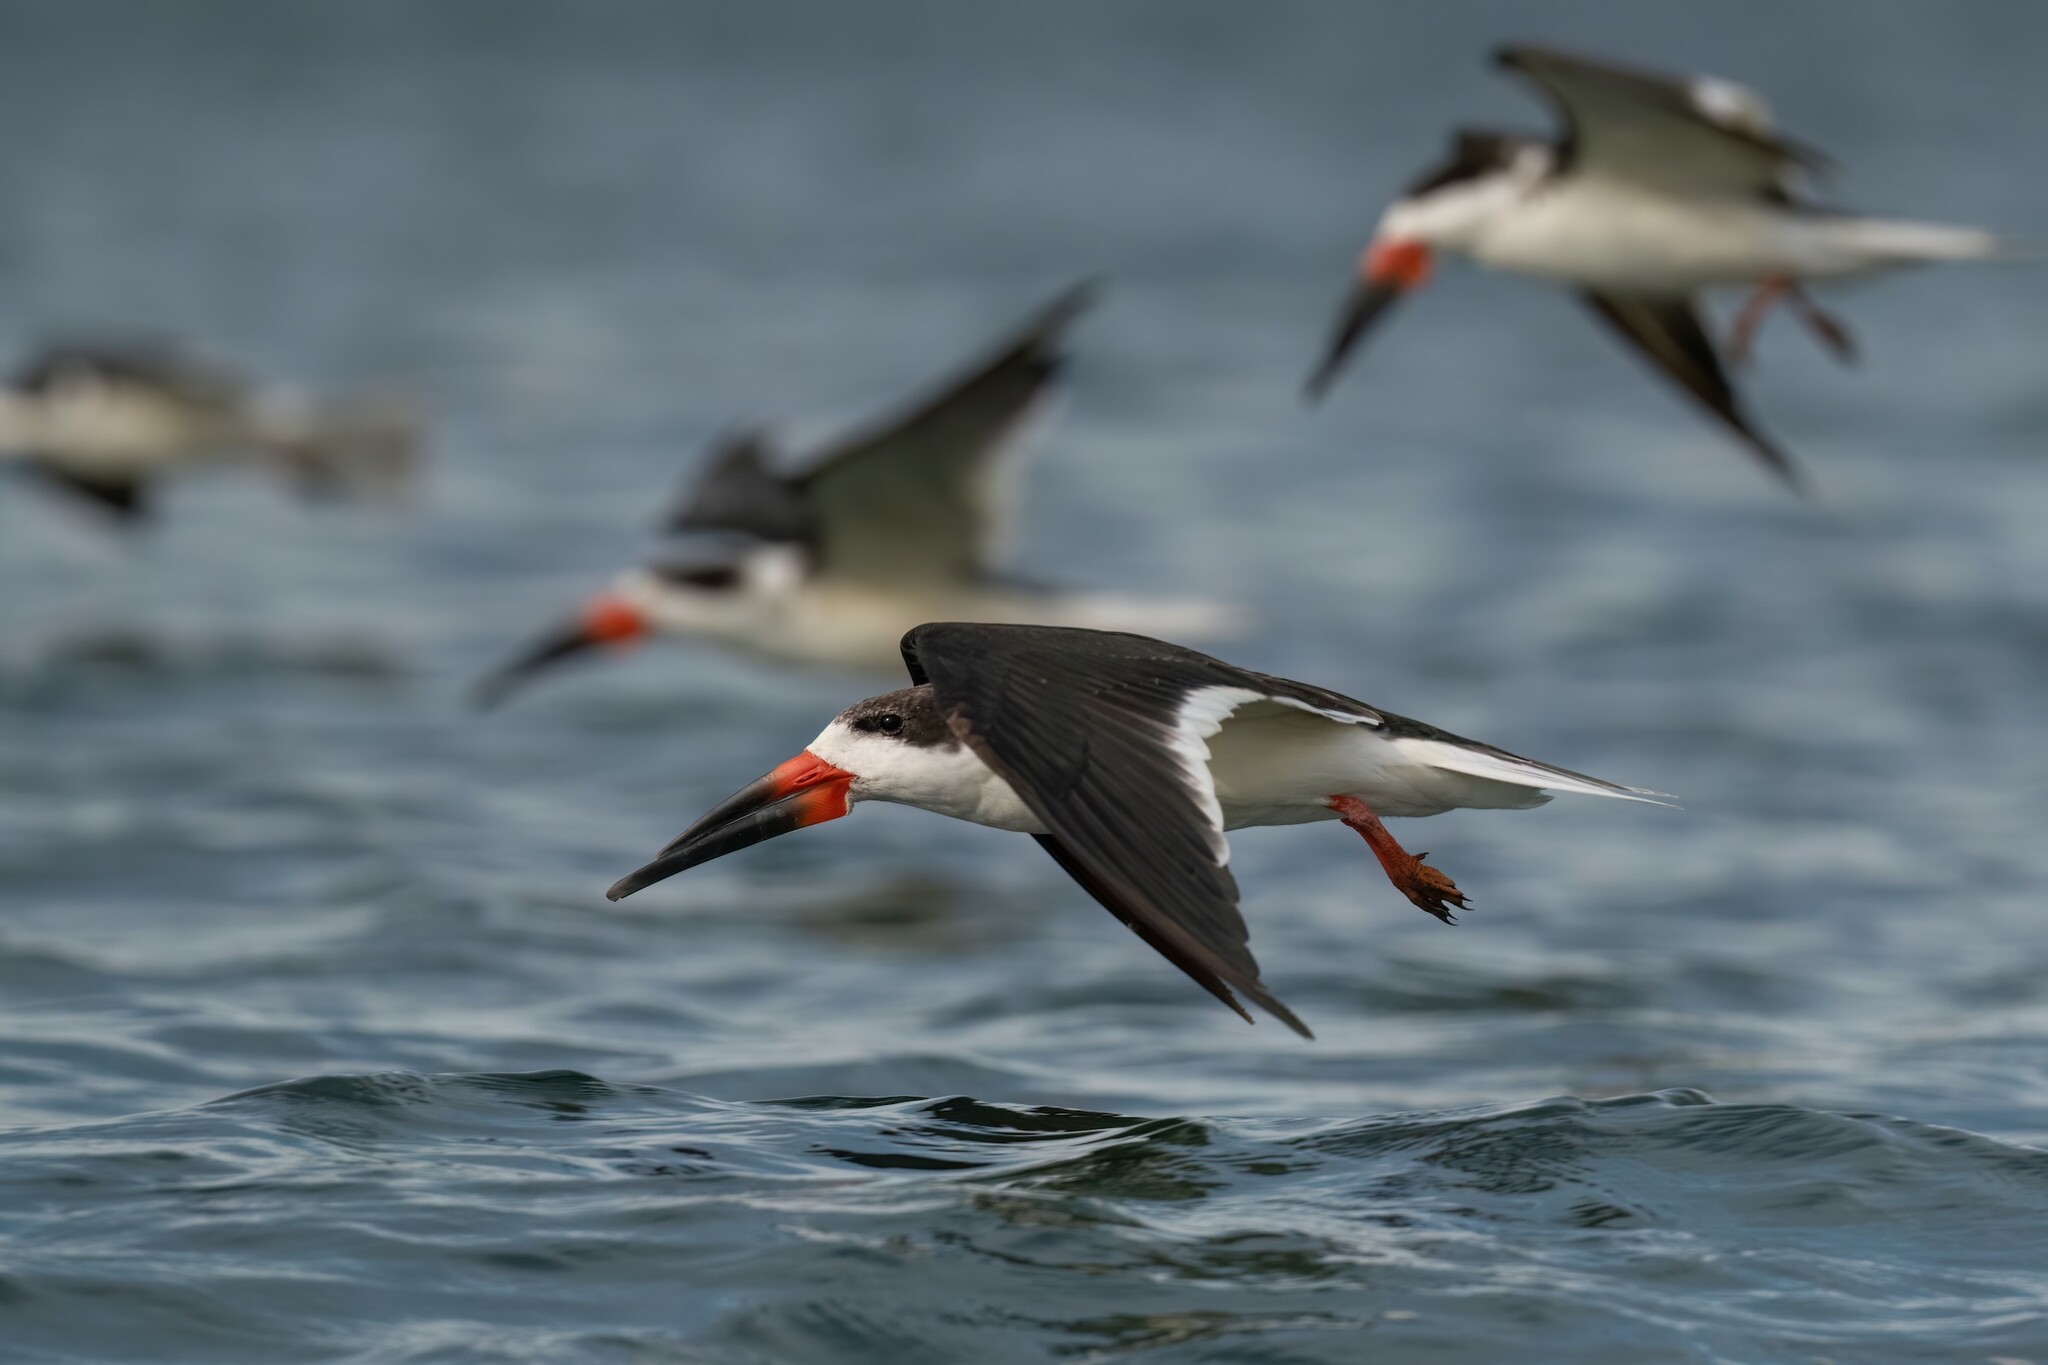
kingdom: Animalia
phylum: Chordata
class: Aves
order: Charadriiformes
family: Laridae
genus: Rynchops
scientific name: Rynchops niger
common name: Black skimmer
